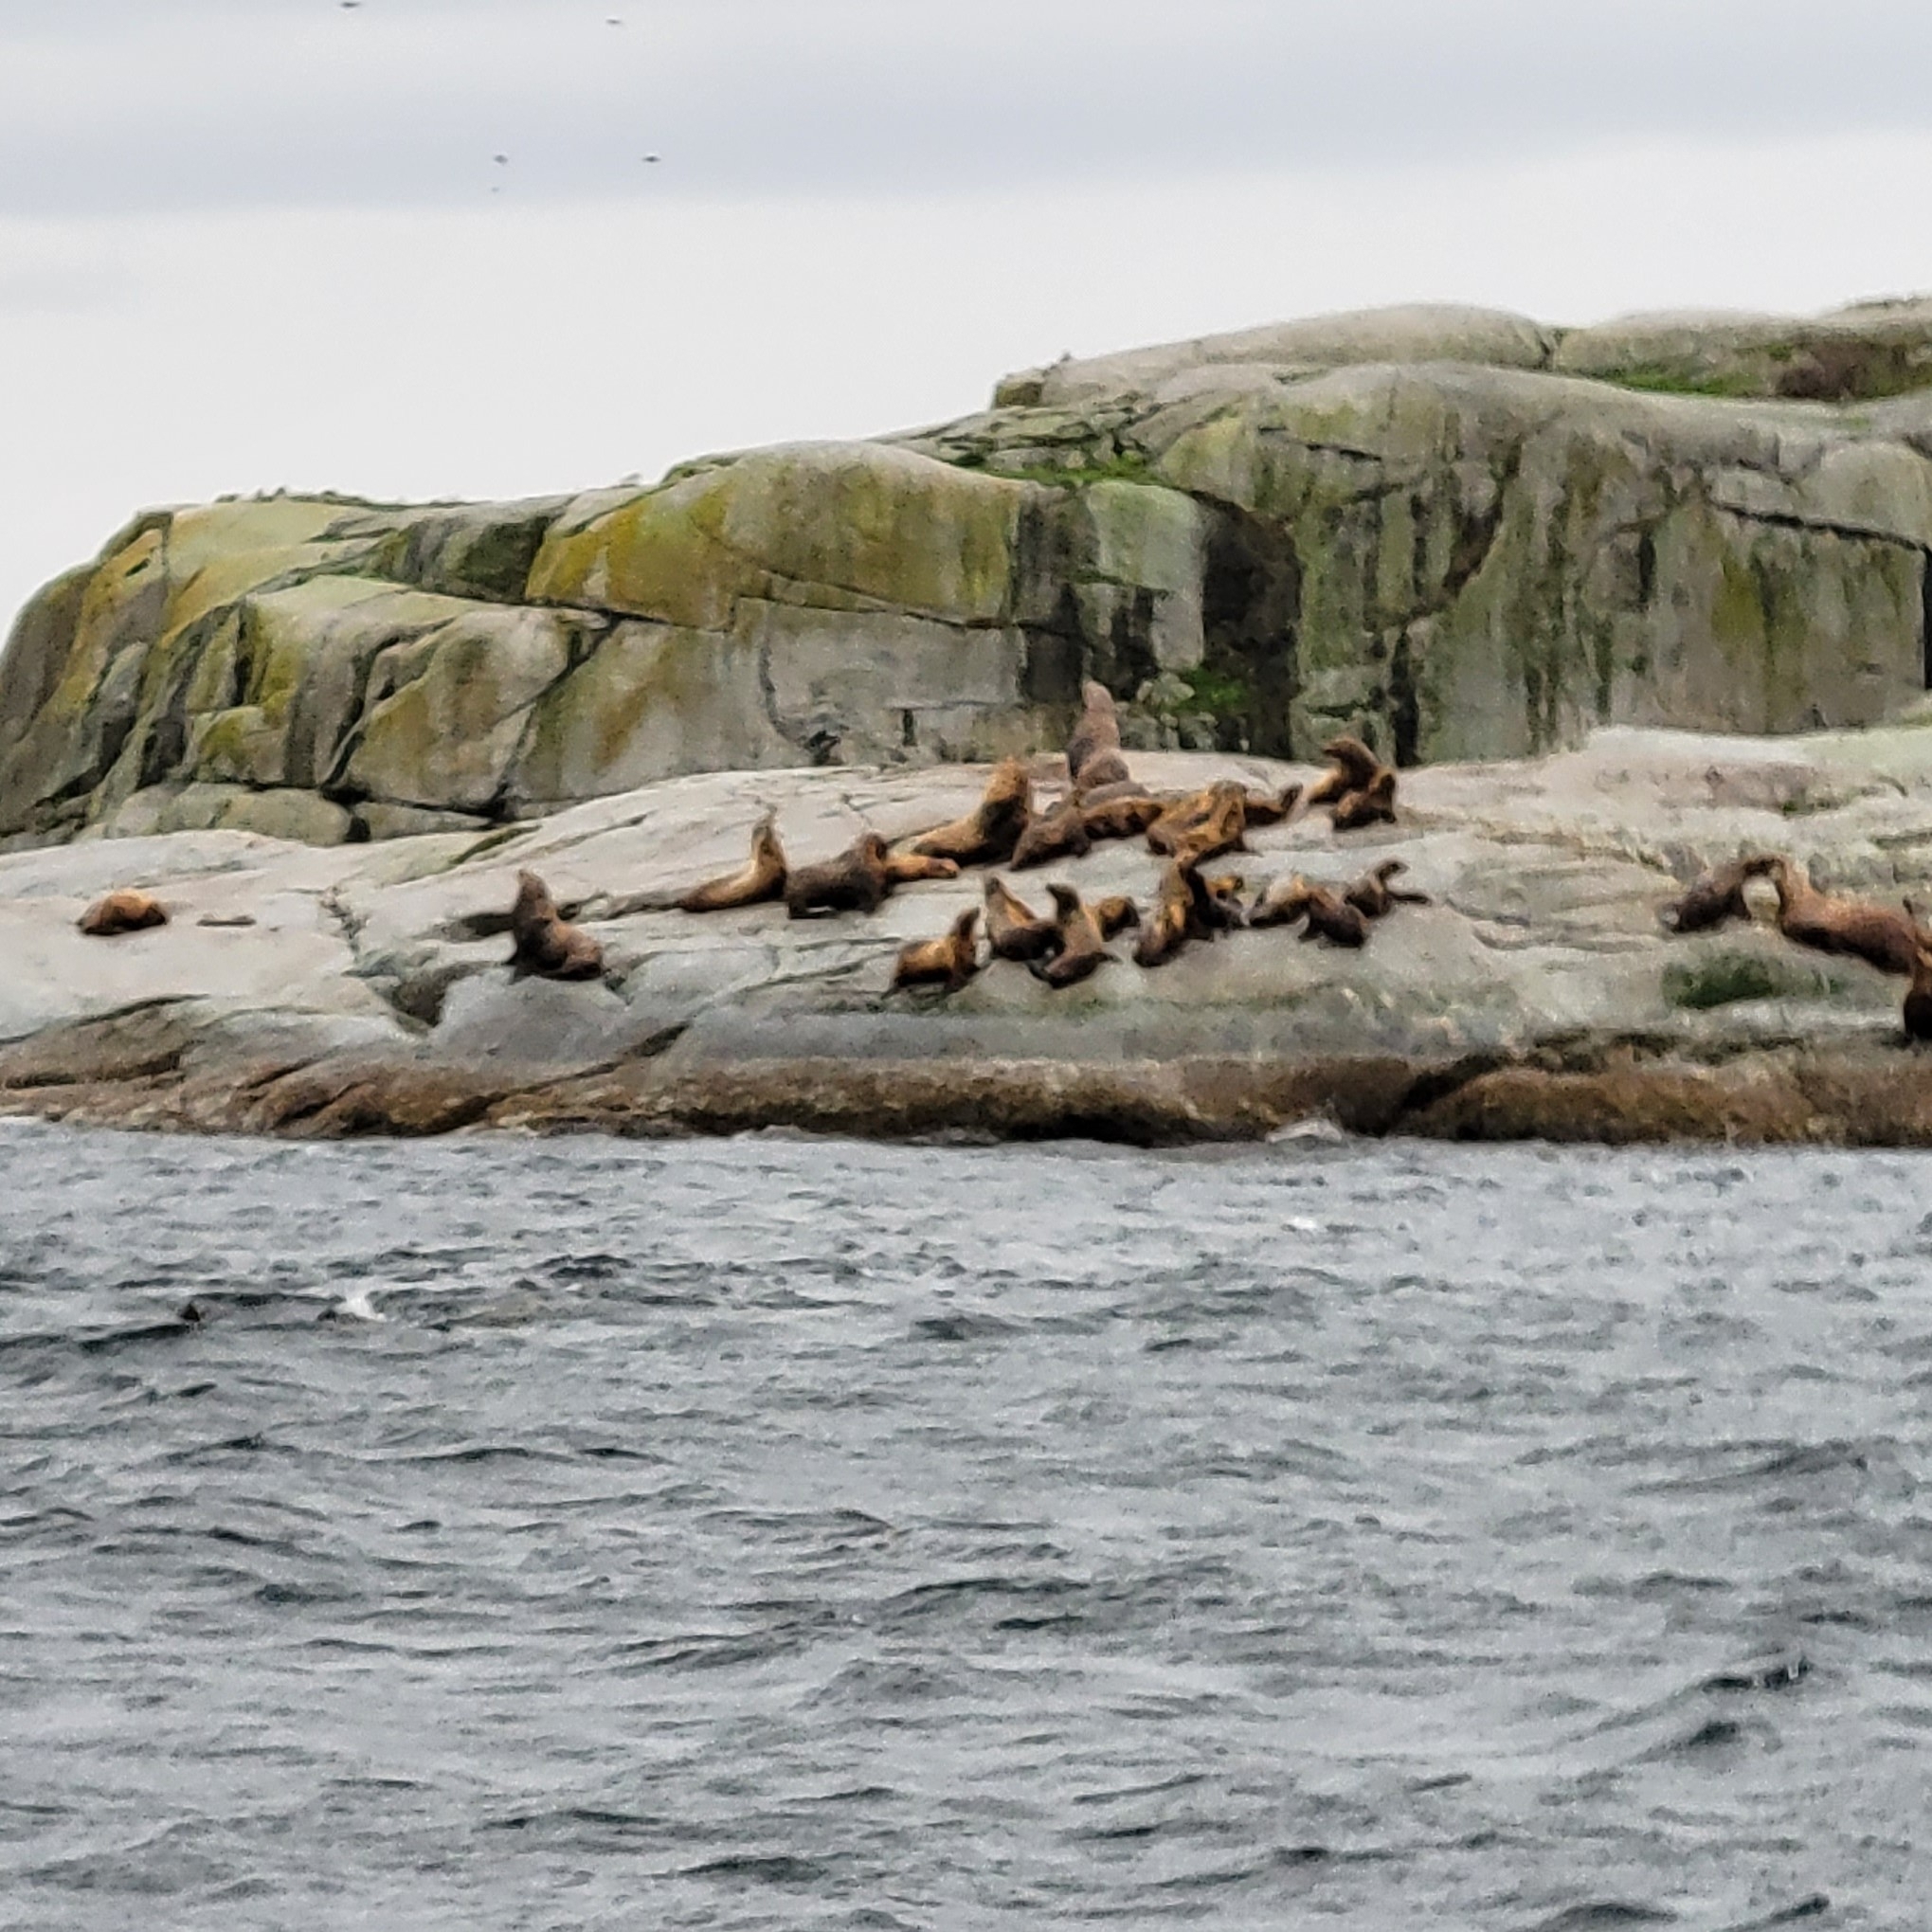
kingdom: Animalia
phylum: Chordata
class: Mammalia
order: Carnivora
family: Otariidae
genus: Eumetopias
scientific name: Eumetopias jubatus
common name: Steller sea lion
